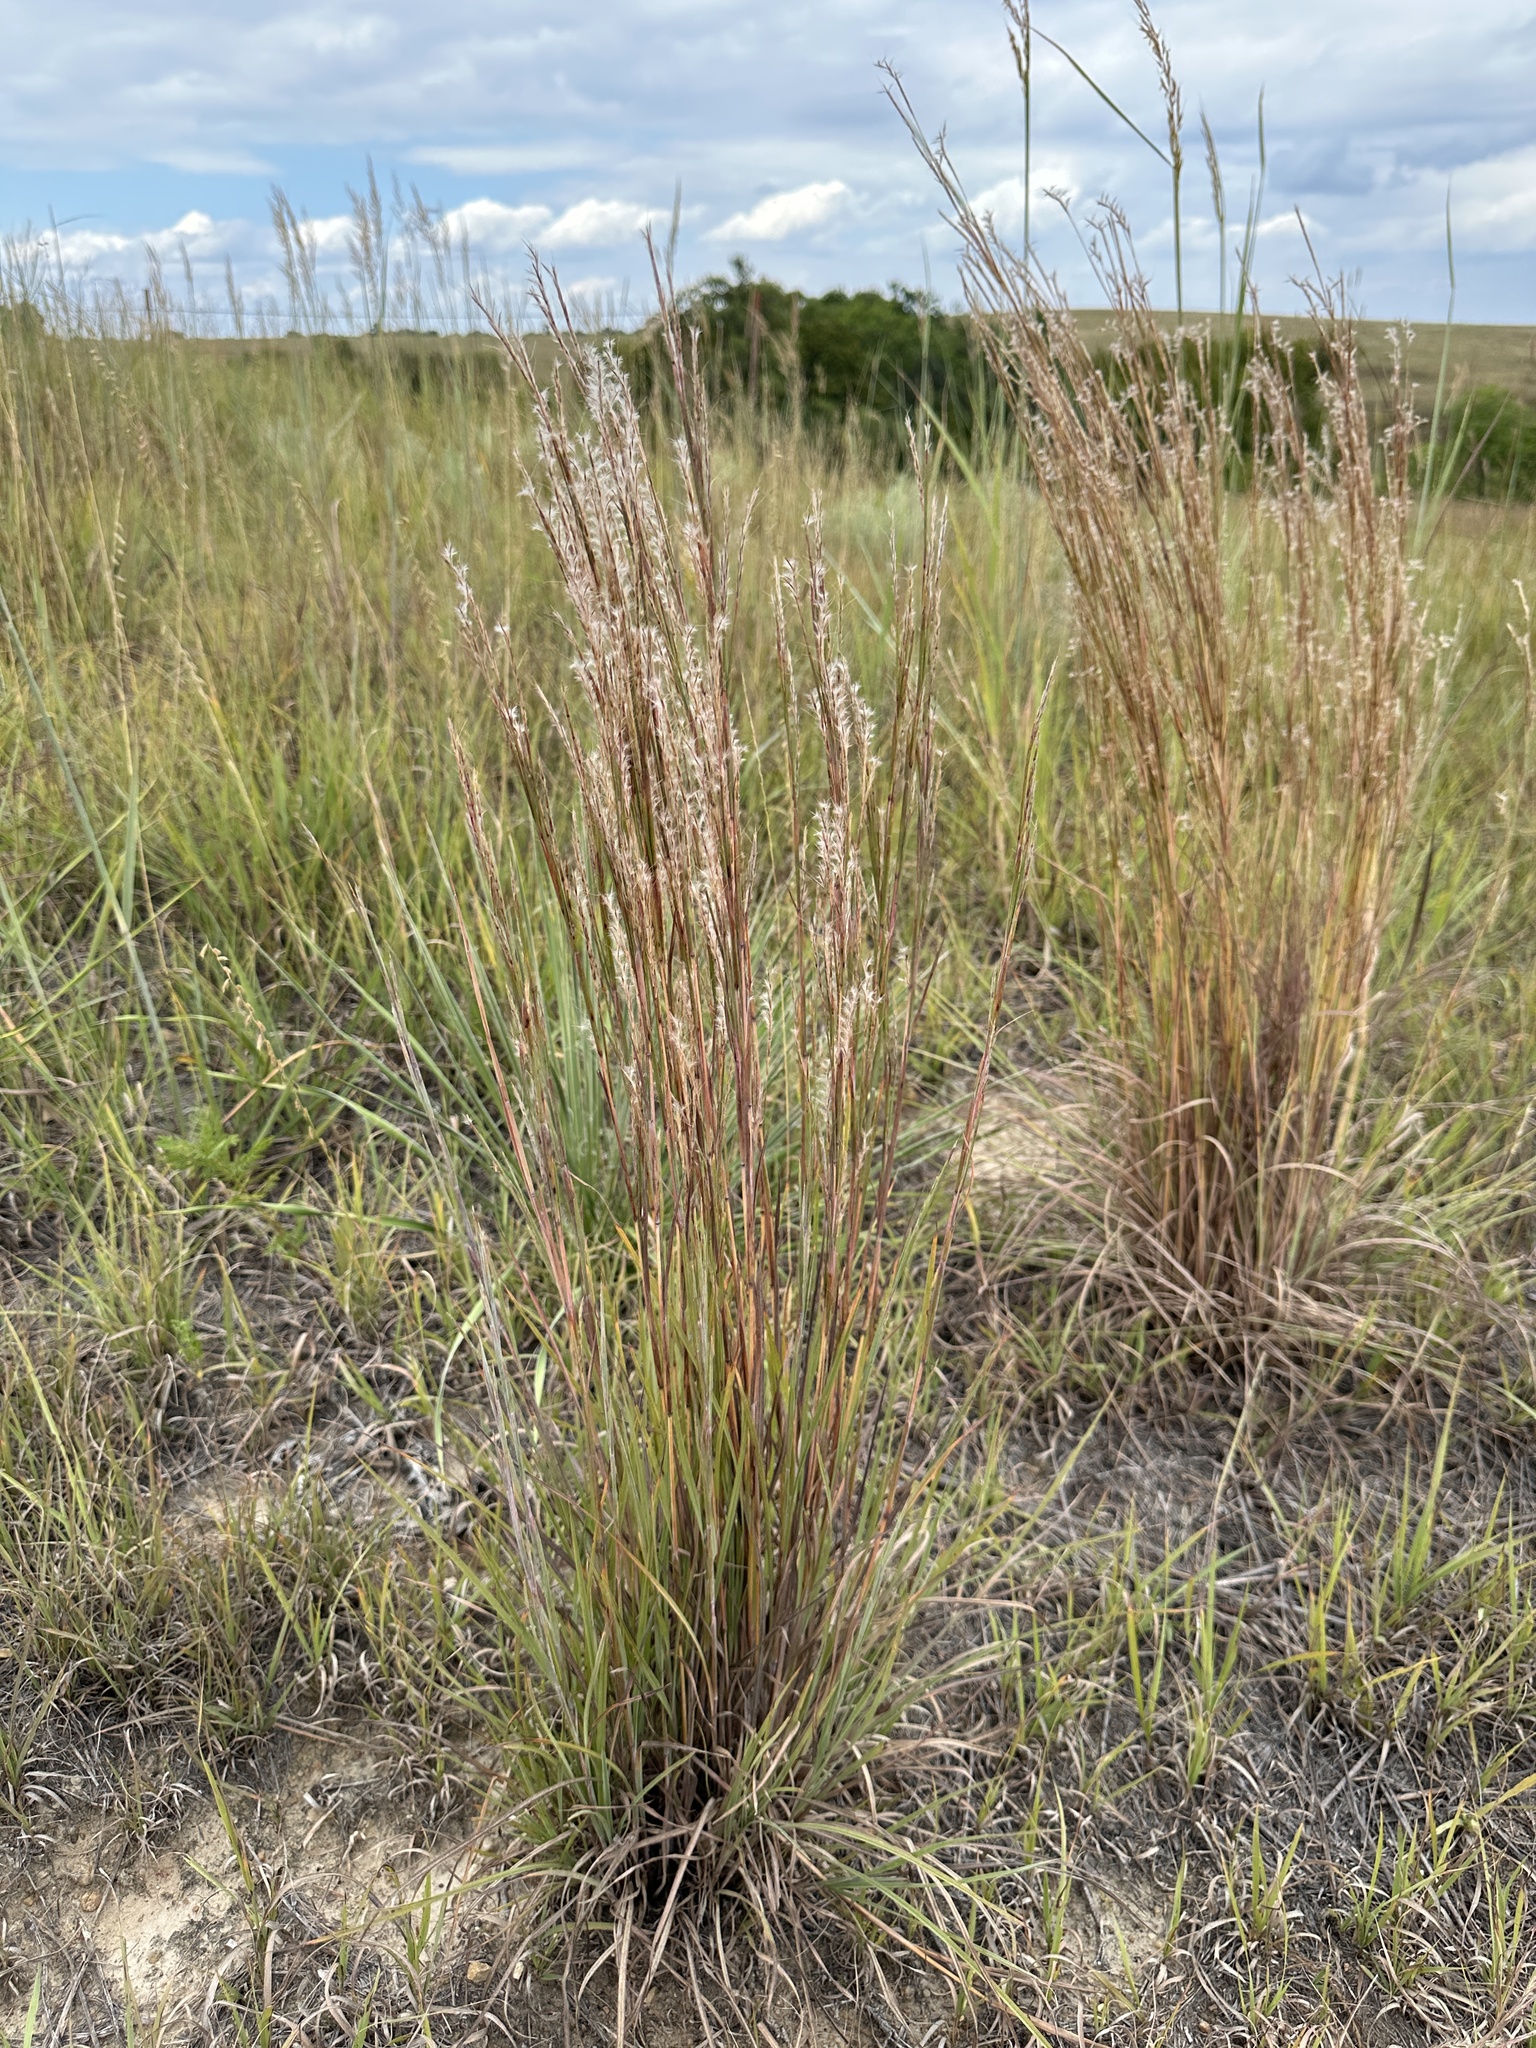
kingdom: Plantae
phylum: Tracheophyta
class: Liliopsida
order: Poales
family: Poaceae
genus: Schizachyrium
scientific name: Schizachyrium scoparium
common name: Little bluestem
